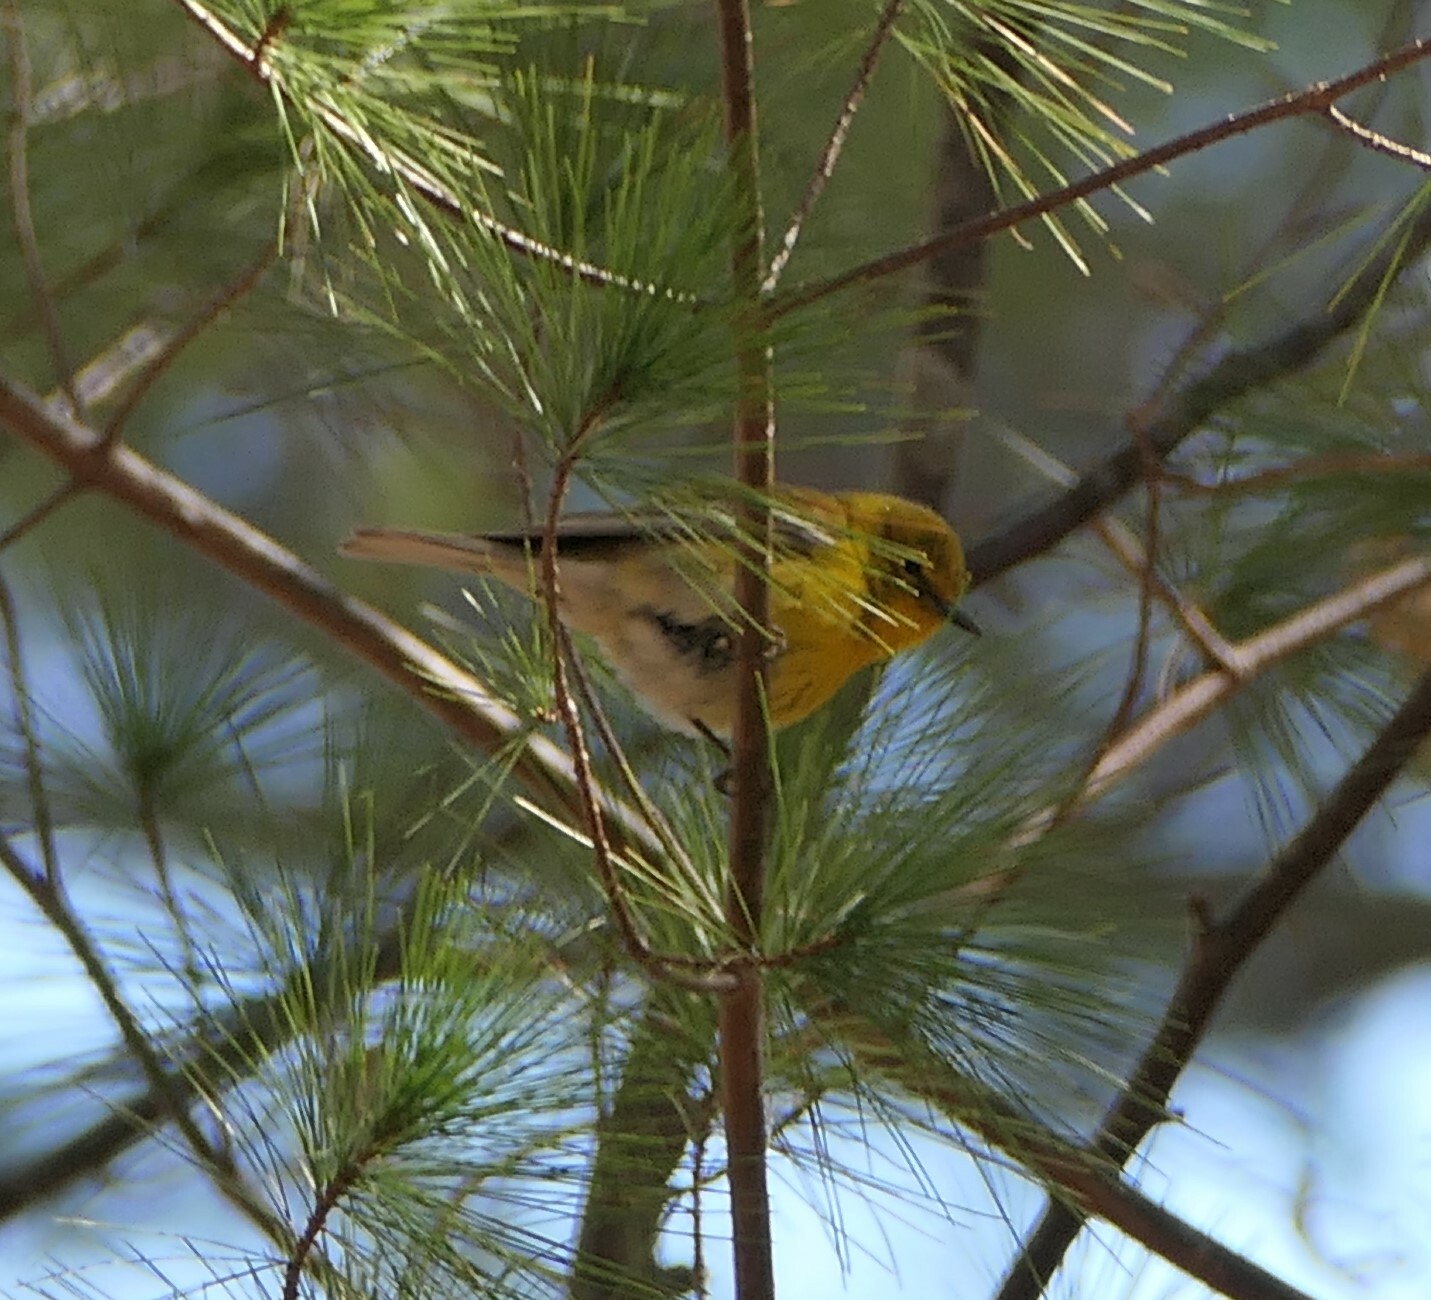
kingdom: Animalia
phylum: Chordata
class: Aves
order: Passeriformes
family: Parulidae
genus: Setophaga
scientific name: Setophaga pinus
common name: Pine warbler
